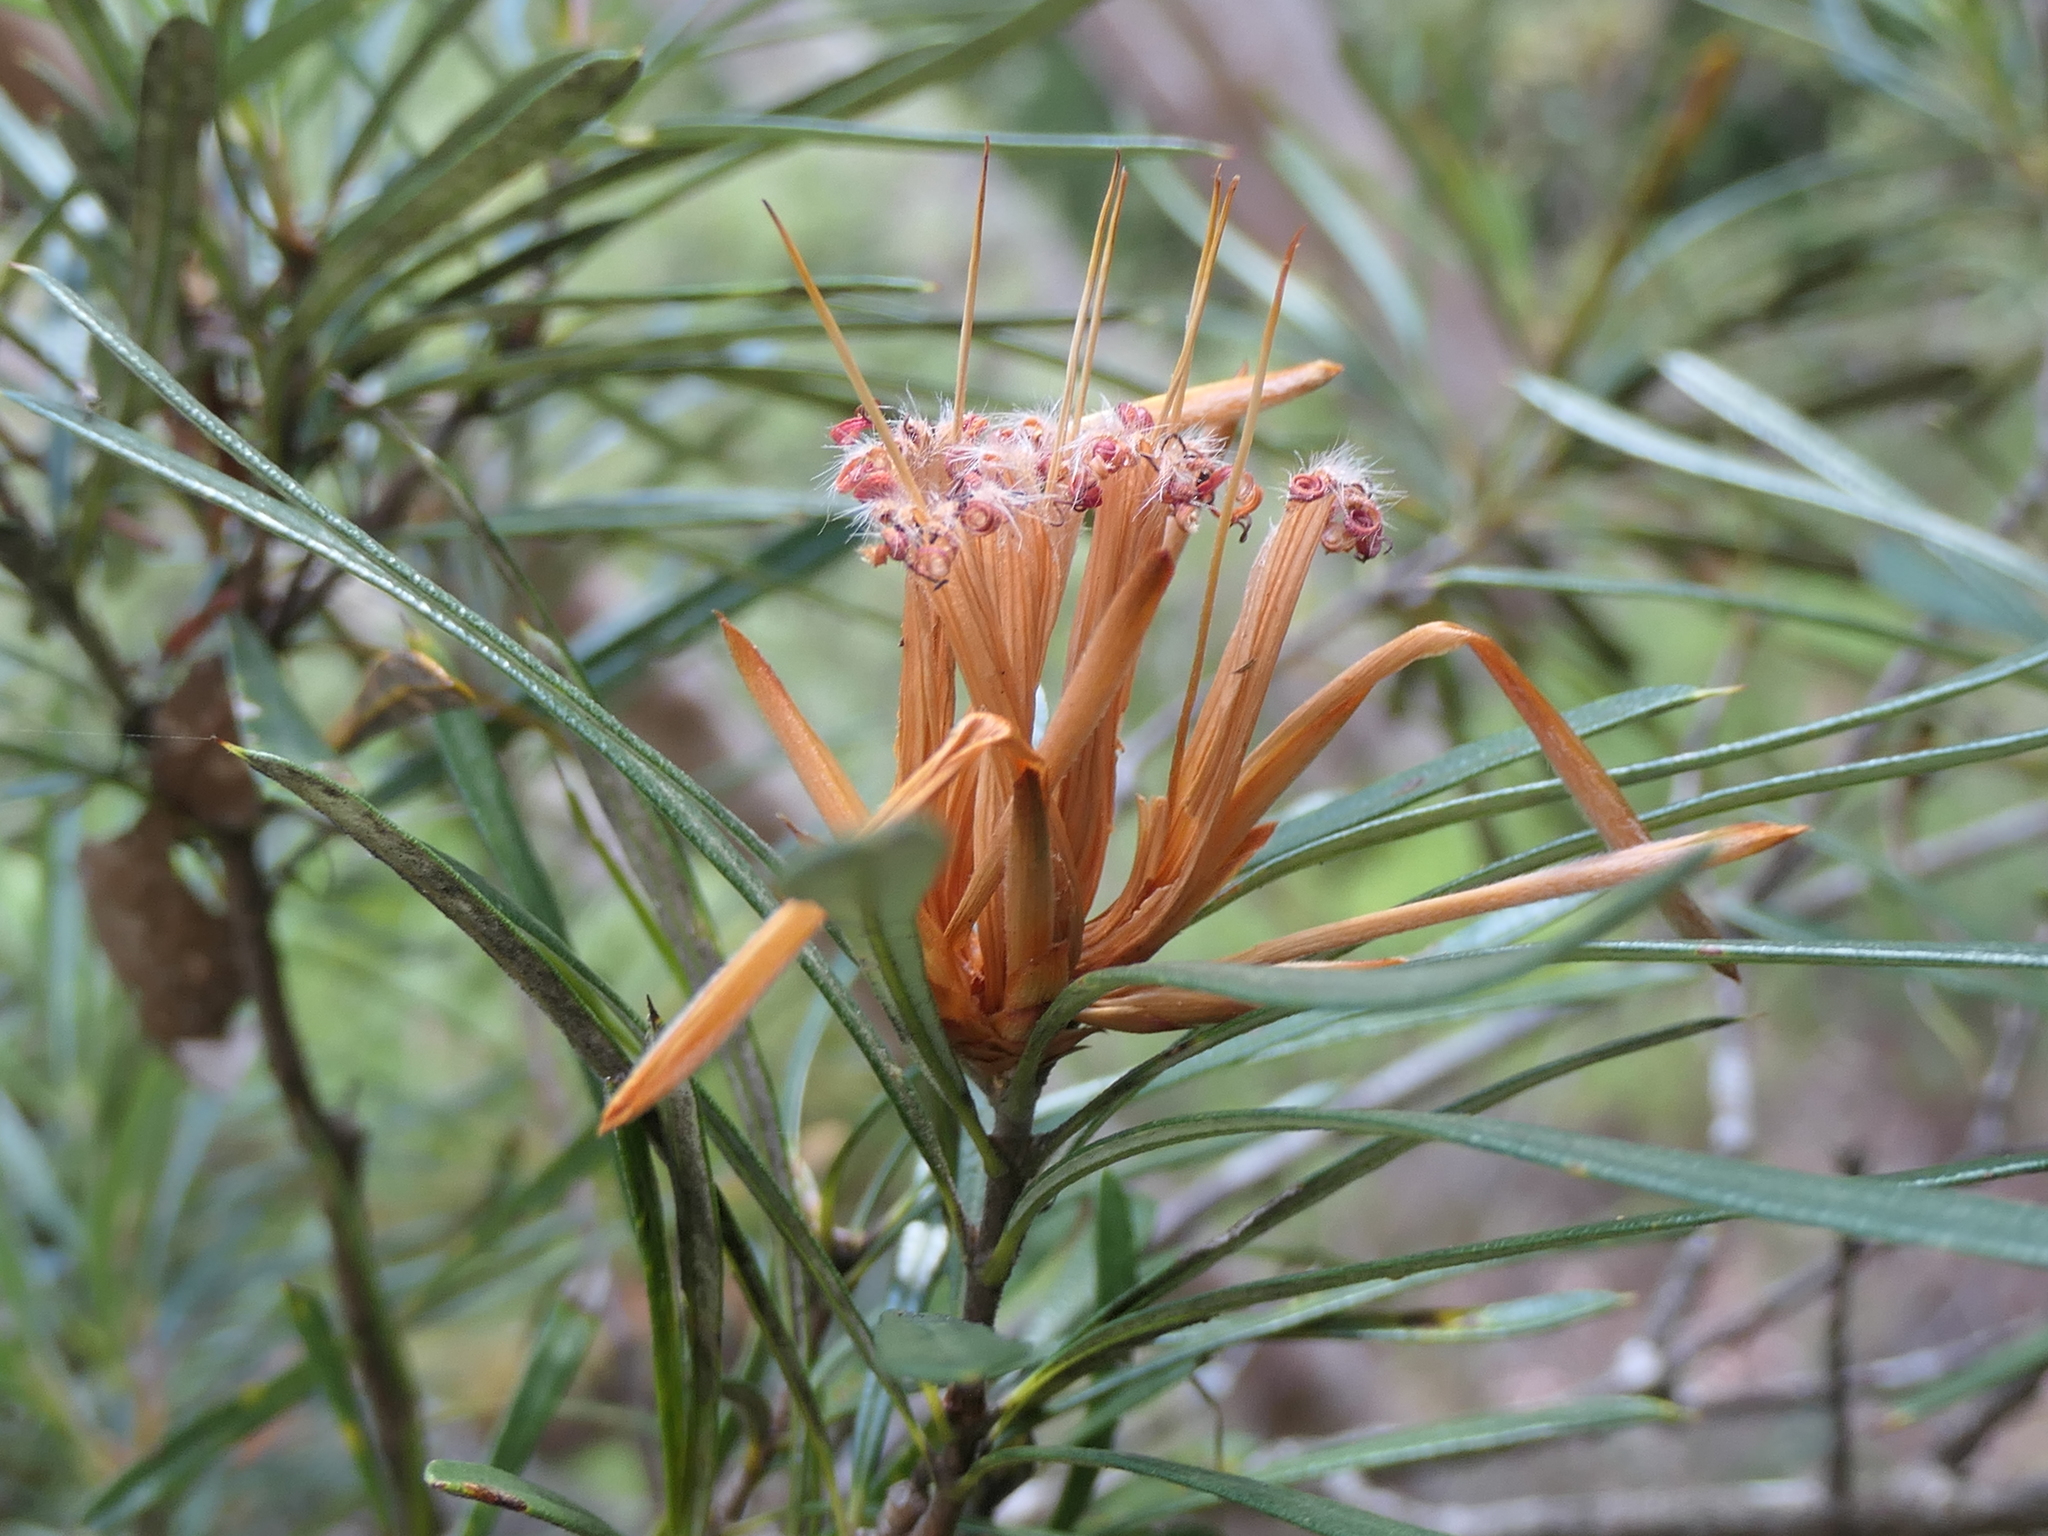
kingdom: Plantae
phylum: Tracheophyta
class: Magnoliopsida
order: Proteales
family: Proteaceae
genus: Lambertia
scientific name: Lambertia formosa
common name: Mountain-devil
